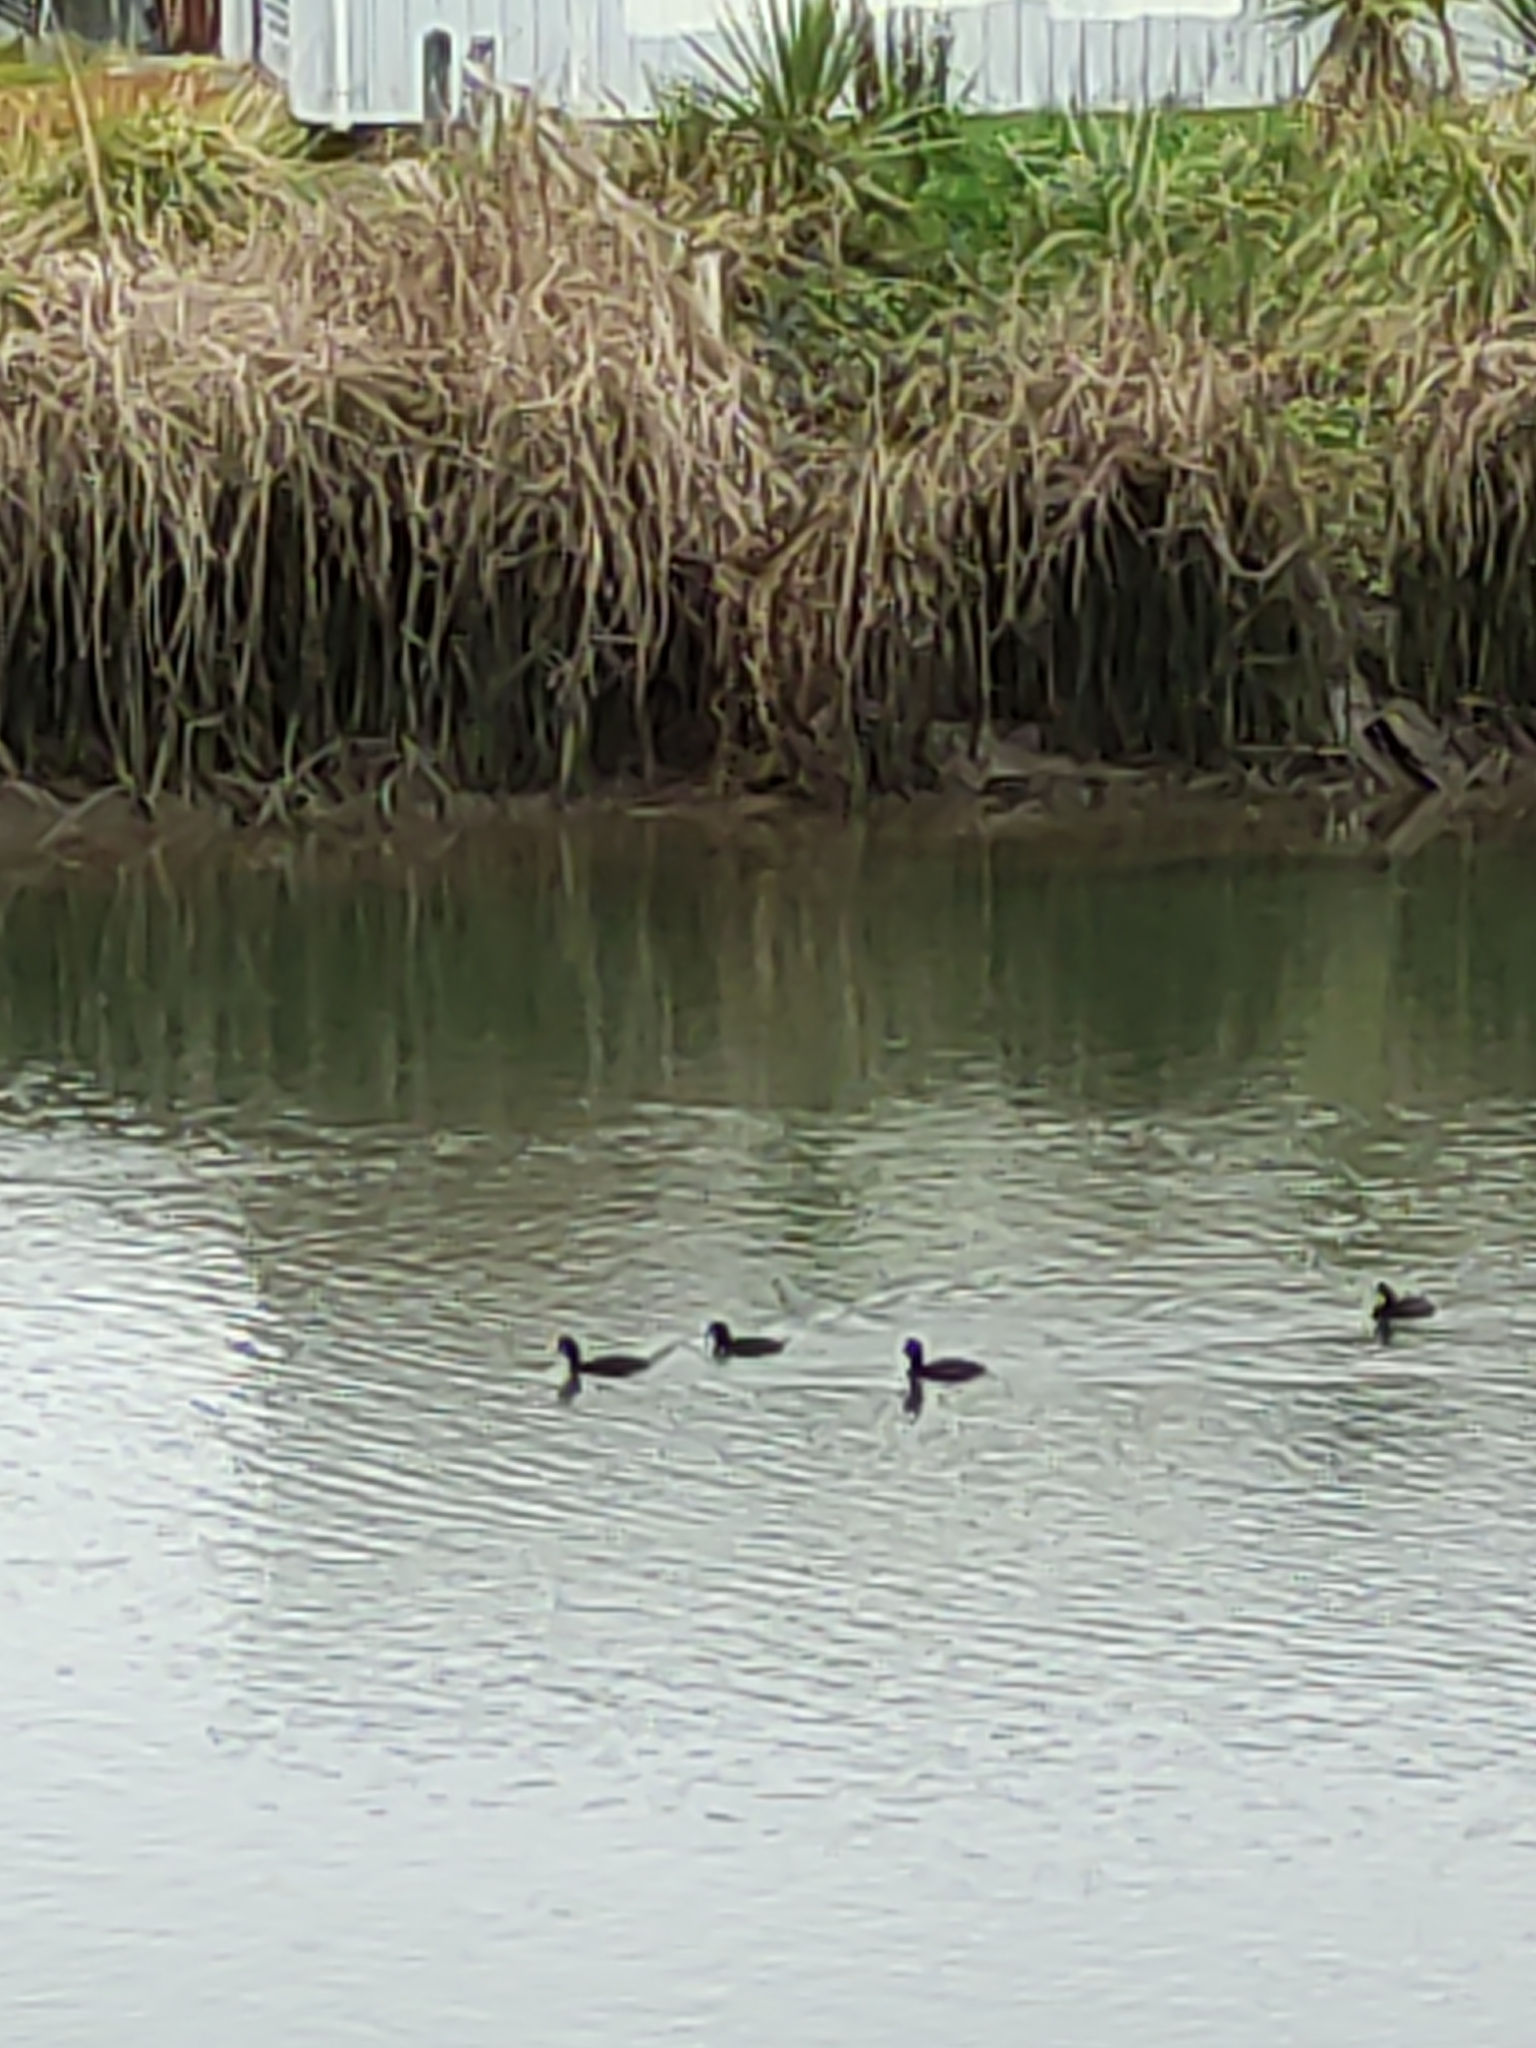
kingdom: Animalia
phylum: Chordata
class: Aves
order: Anseriformes
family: Anatidae
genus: Aythya
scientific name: Aythya novaeseelandiae
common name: New zealand scaup
